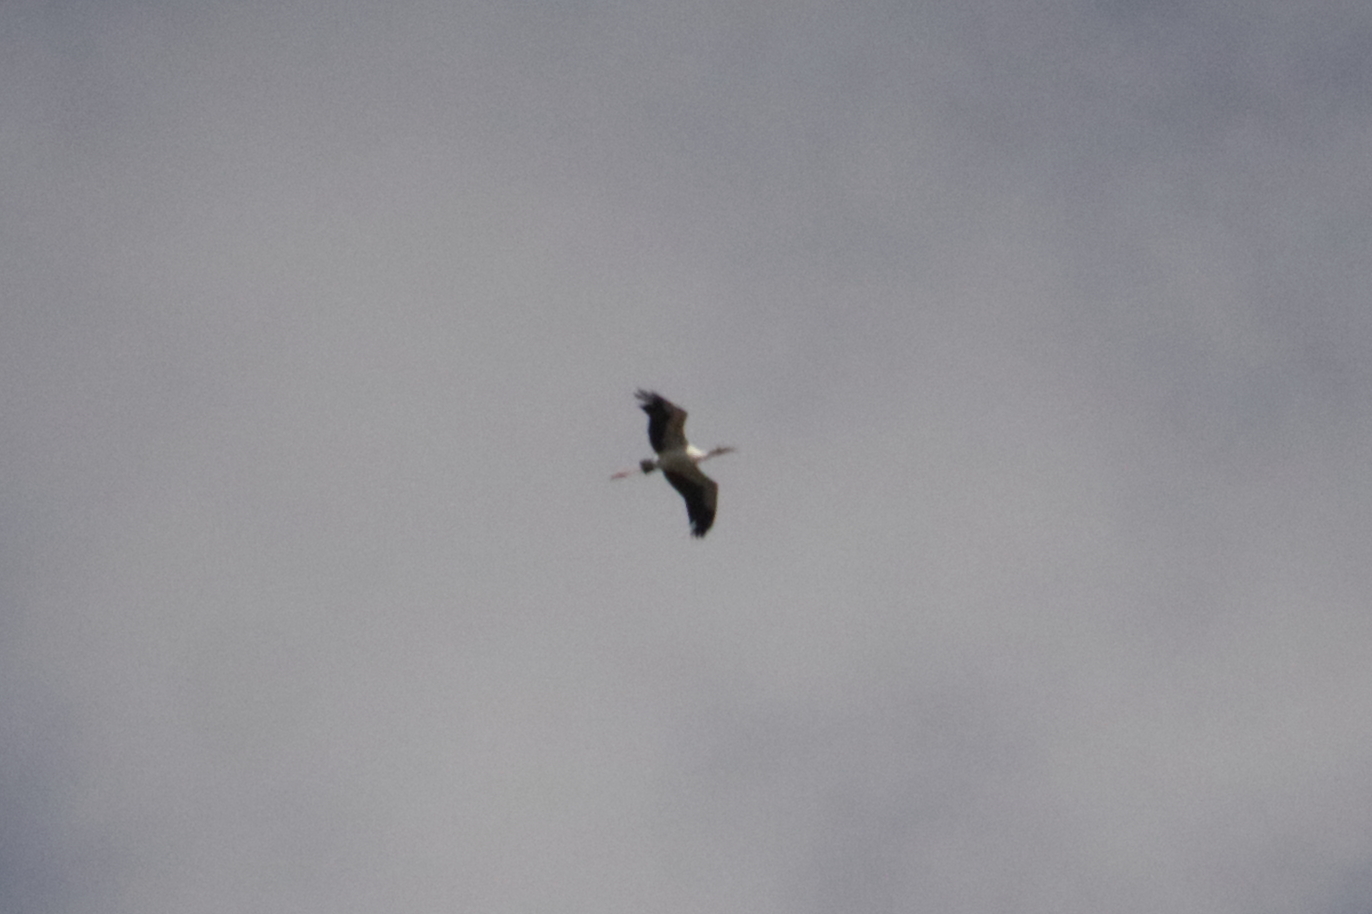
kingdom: Animalia
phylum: Chordata
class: Aves
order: Ciconiiformes
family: Ciconiidae
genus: Mycteria
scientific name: Mycteria americana
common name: Wood stork
